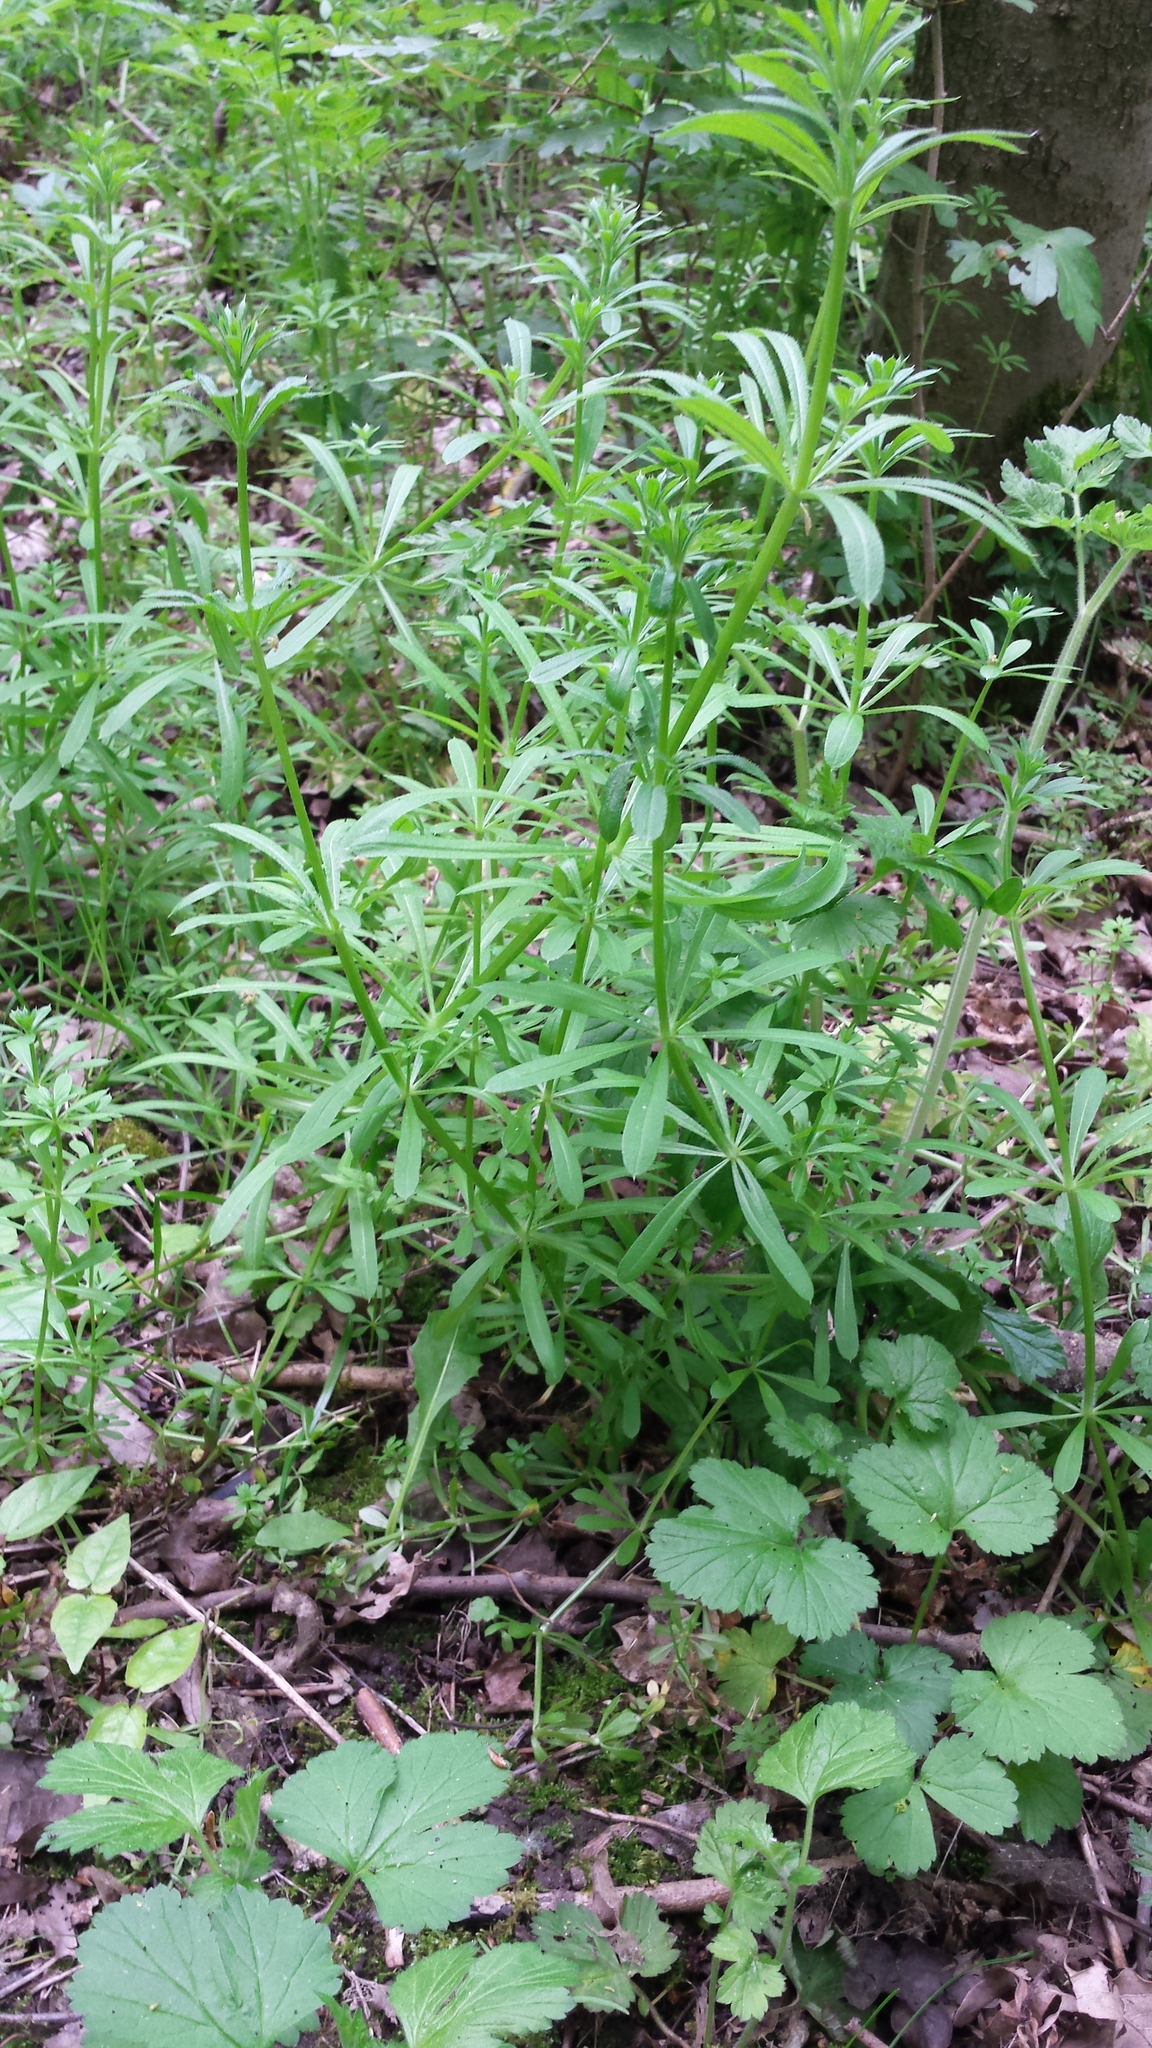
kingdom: Plantae
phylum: Tracheophyta
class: Magnoliopsida
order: Gentianales
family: Rubiaceae
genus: Galium
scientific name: Galium aparine
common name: Cleavers
